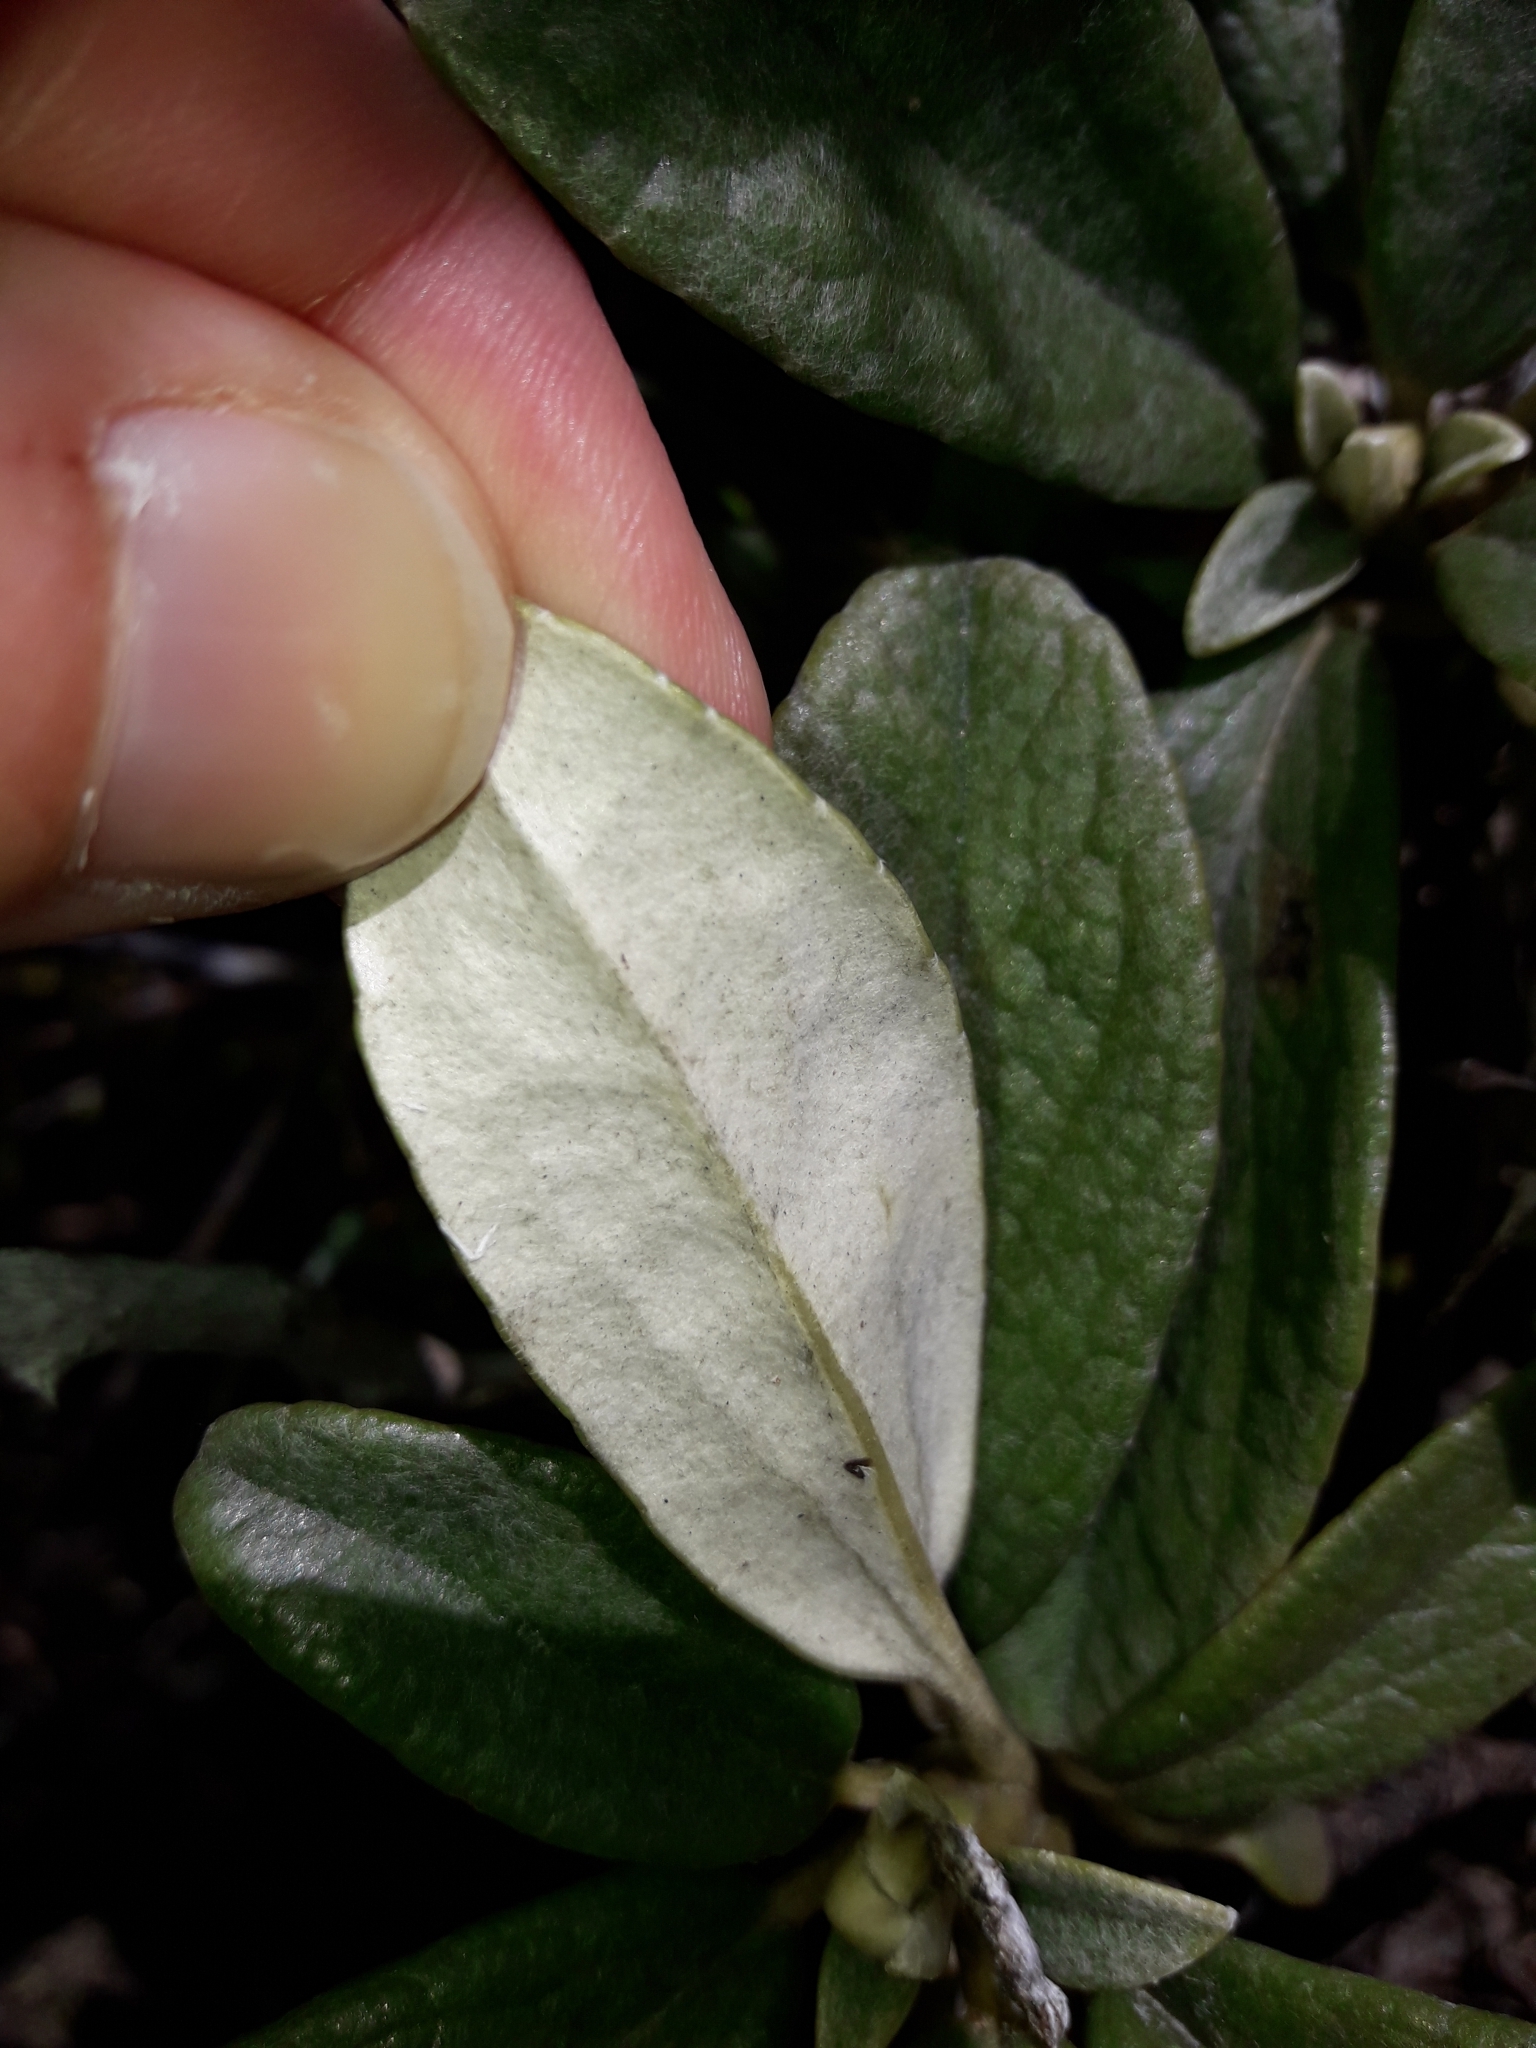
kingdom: Plantae
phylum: Tracheophyta
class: Magnoliopsida
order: Asterales
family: Asteraceae
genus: Brachyglottis
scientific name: Brachyglottis revoluta
